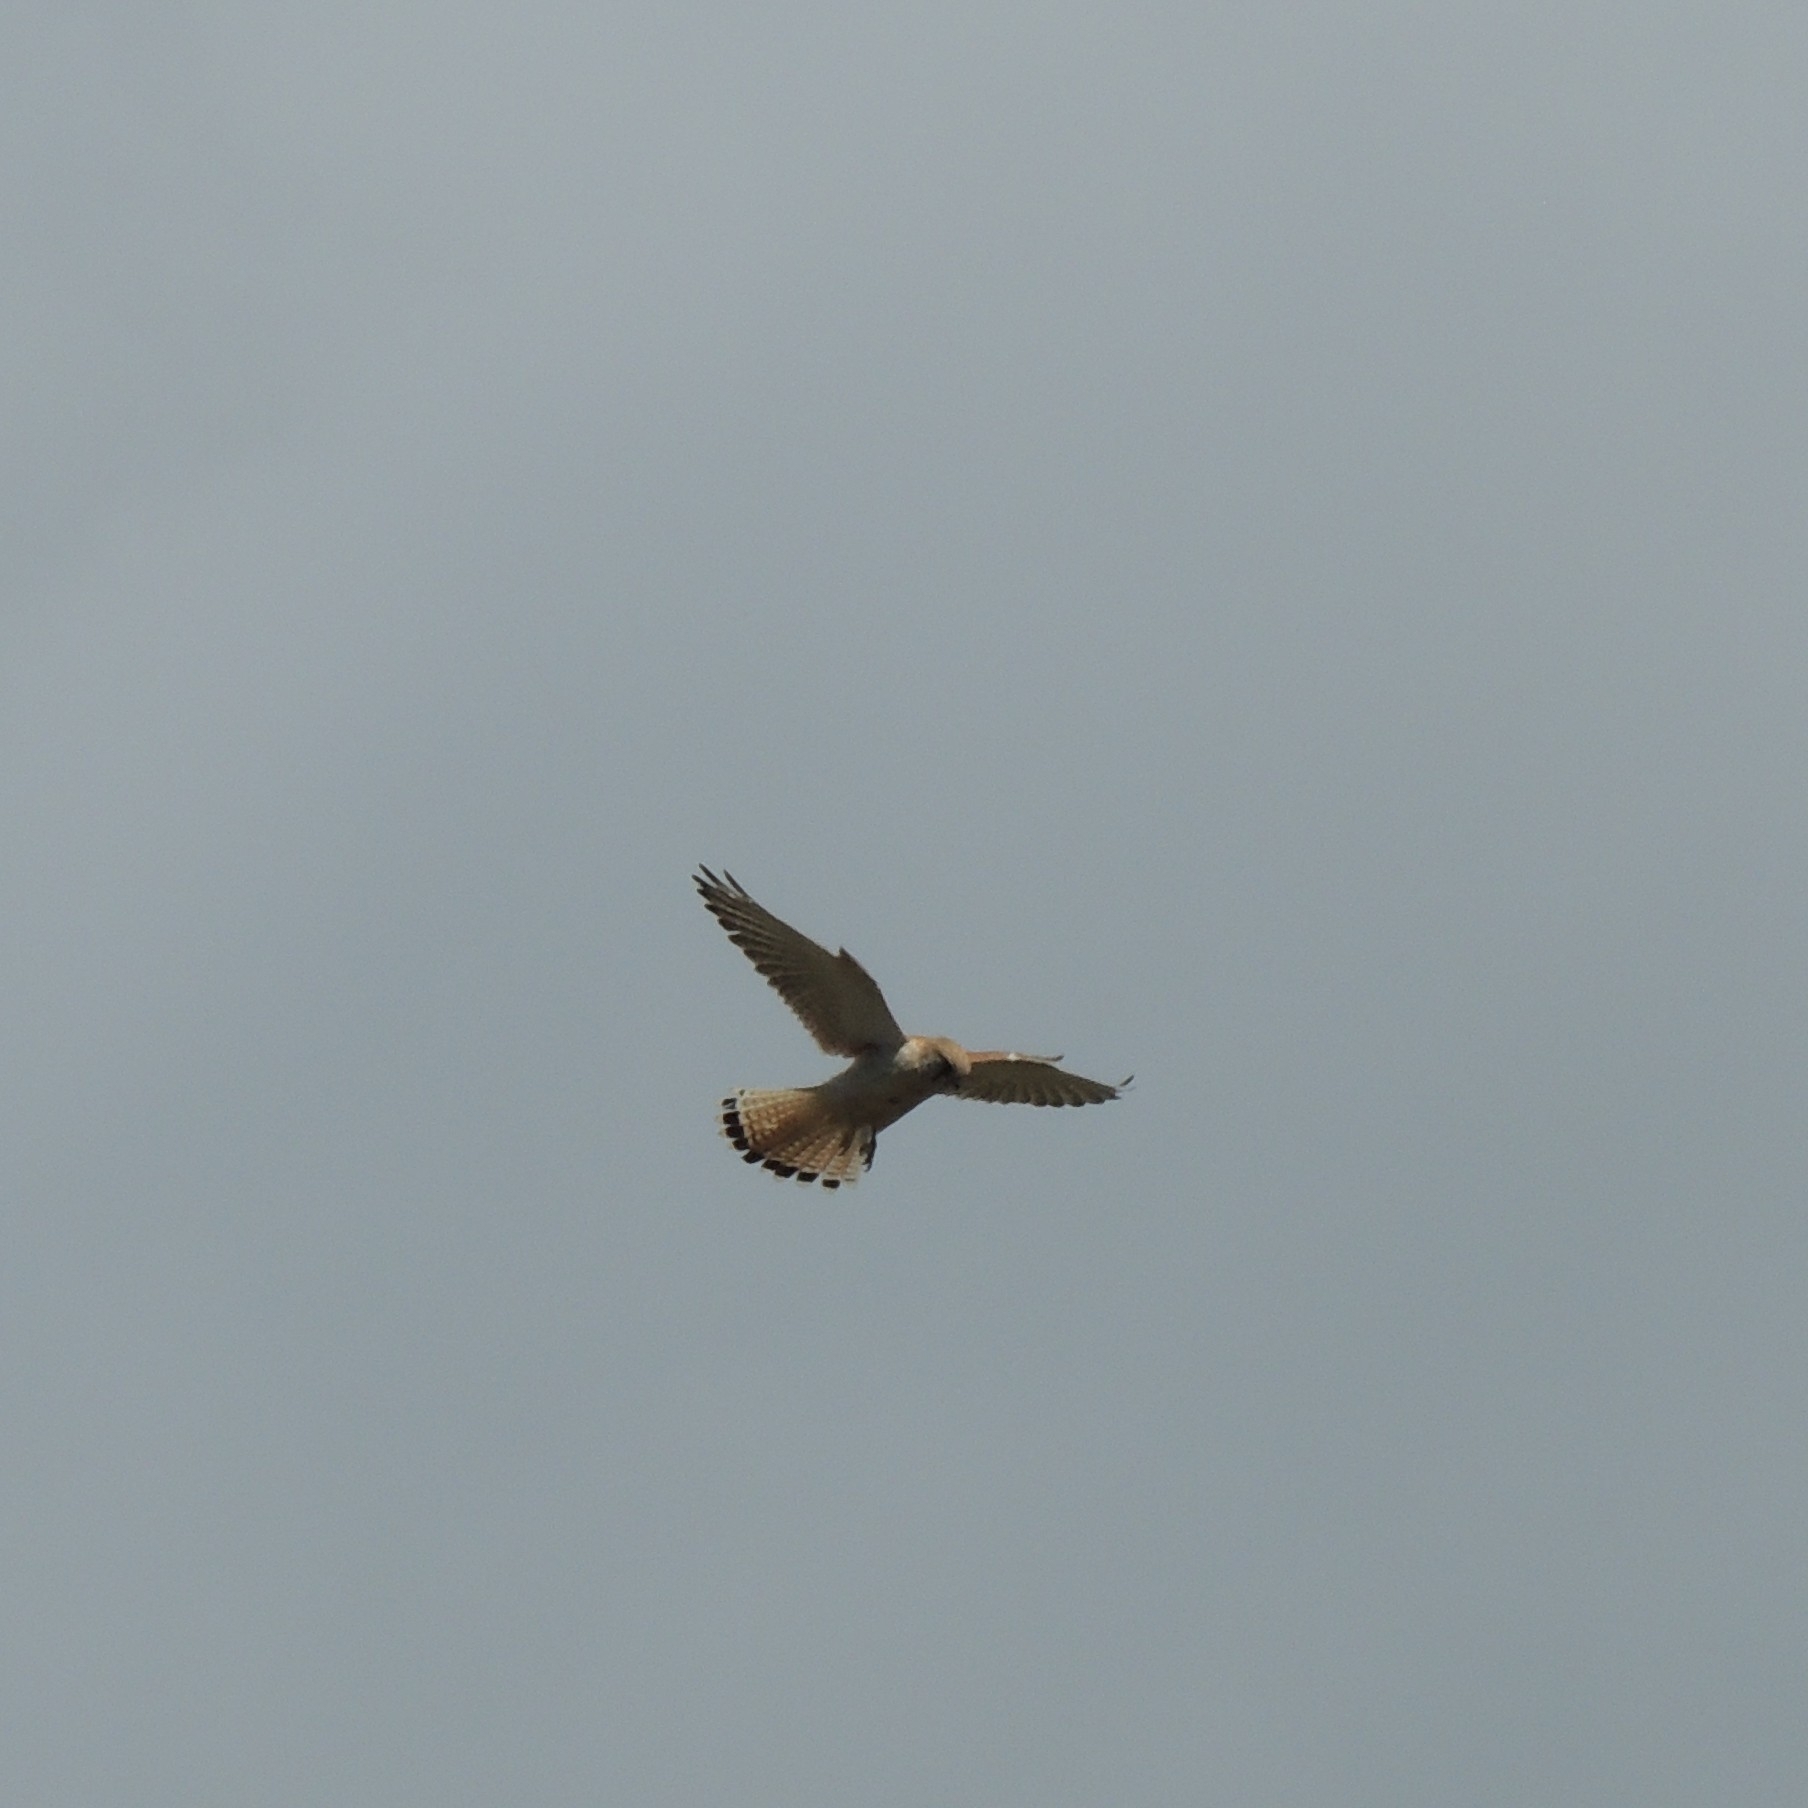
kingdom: Animalia
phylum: Chordata
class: Aves
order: Falconiformes
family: Falconidae
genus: Falco
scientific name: Falco cenchroides
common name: Nankeen kestrel
